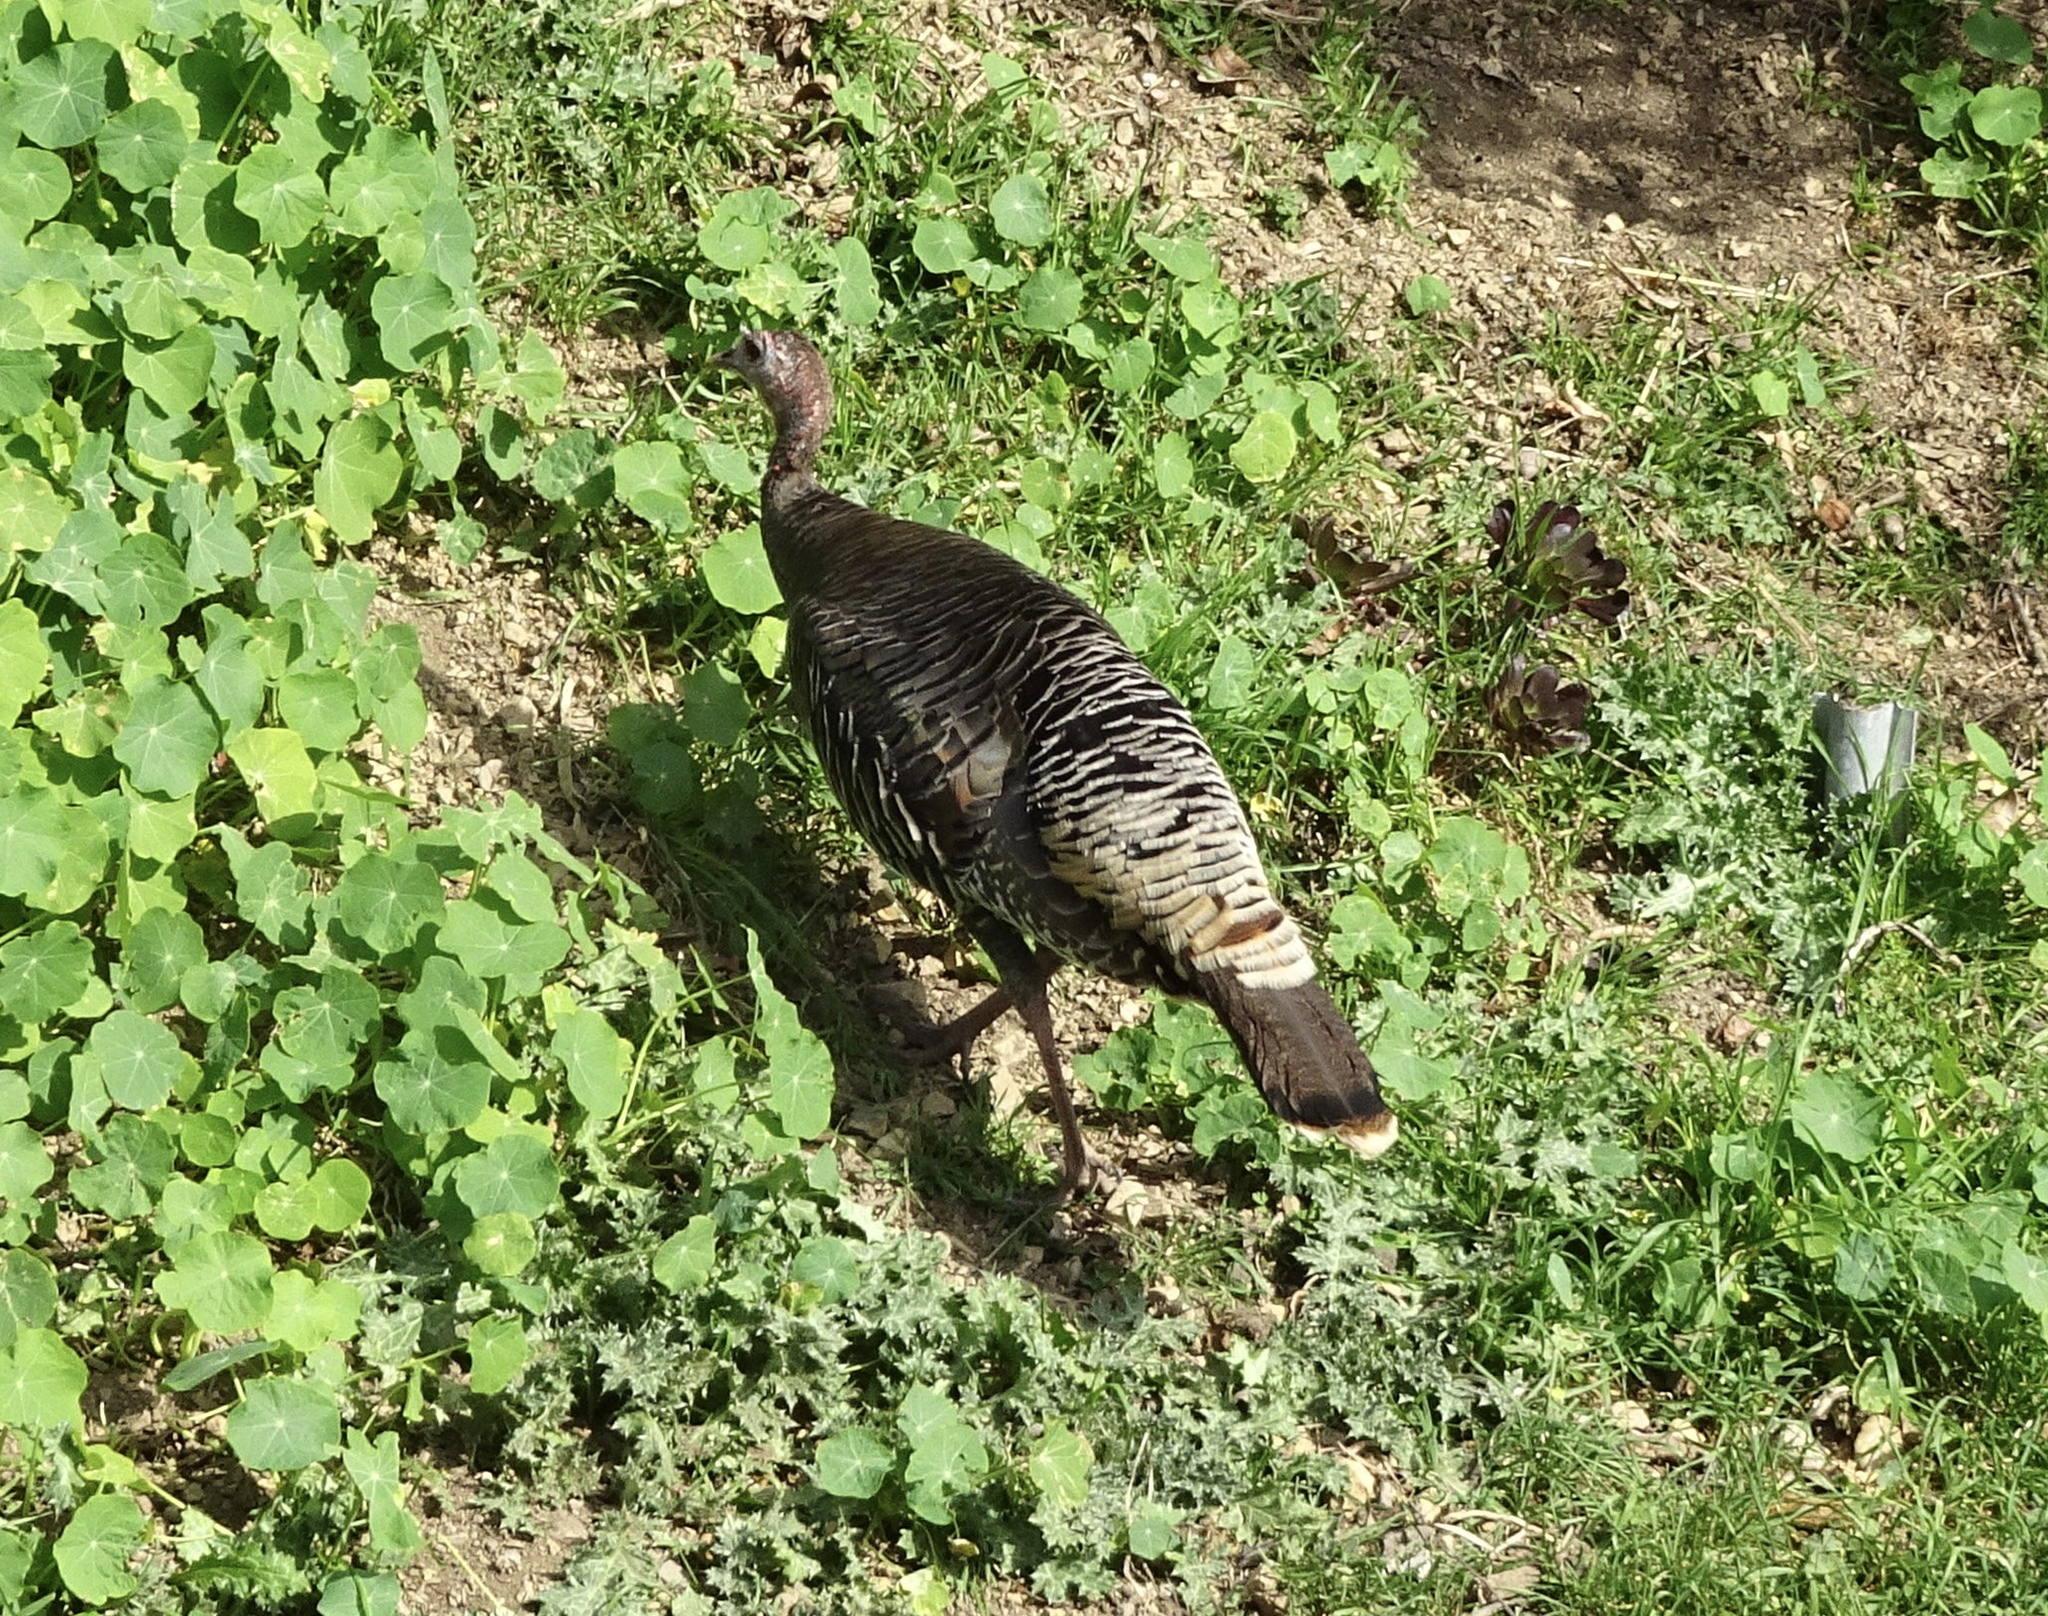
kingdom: Animalia
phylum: Chordata
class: Aves
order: Galliformes
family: Phasianidae
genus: Meleagris
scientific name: Meleagris gallopavo
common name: Wild turkey
